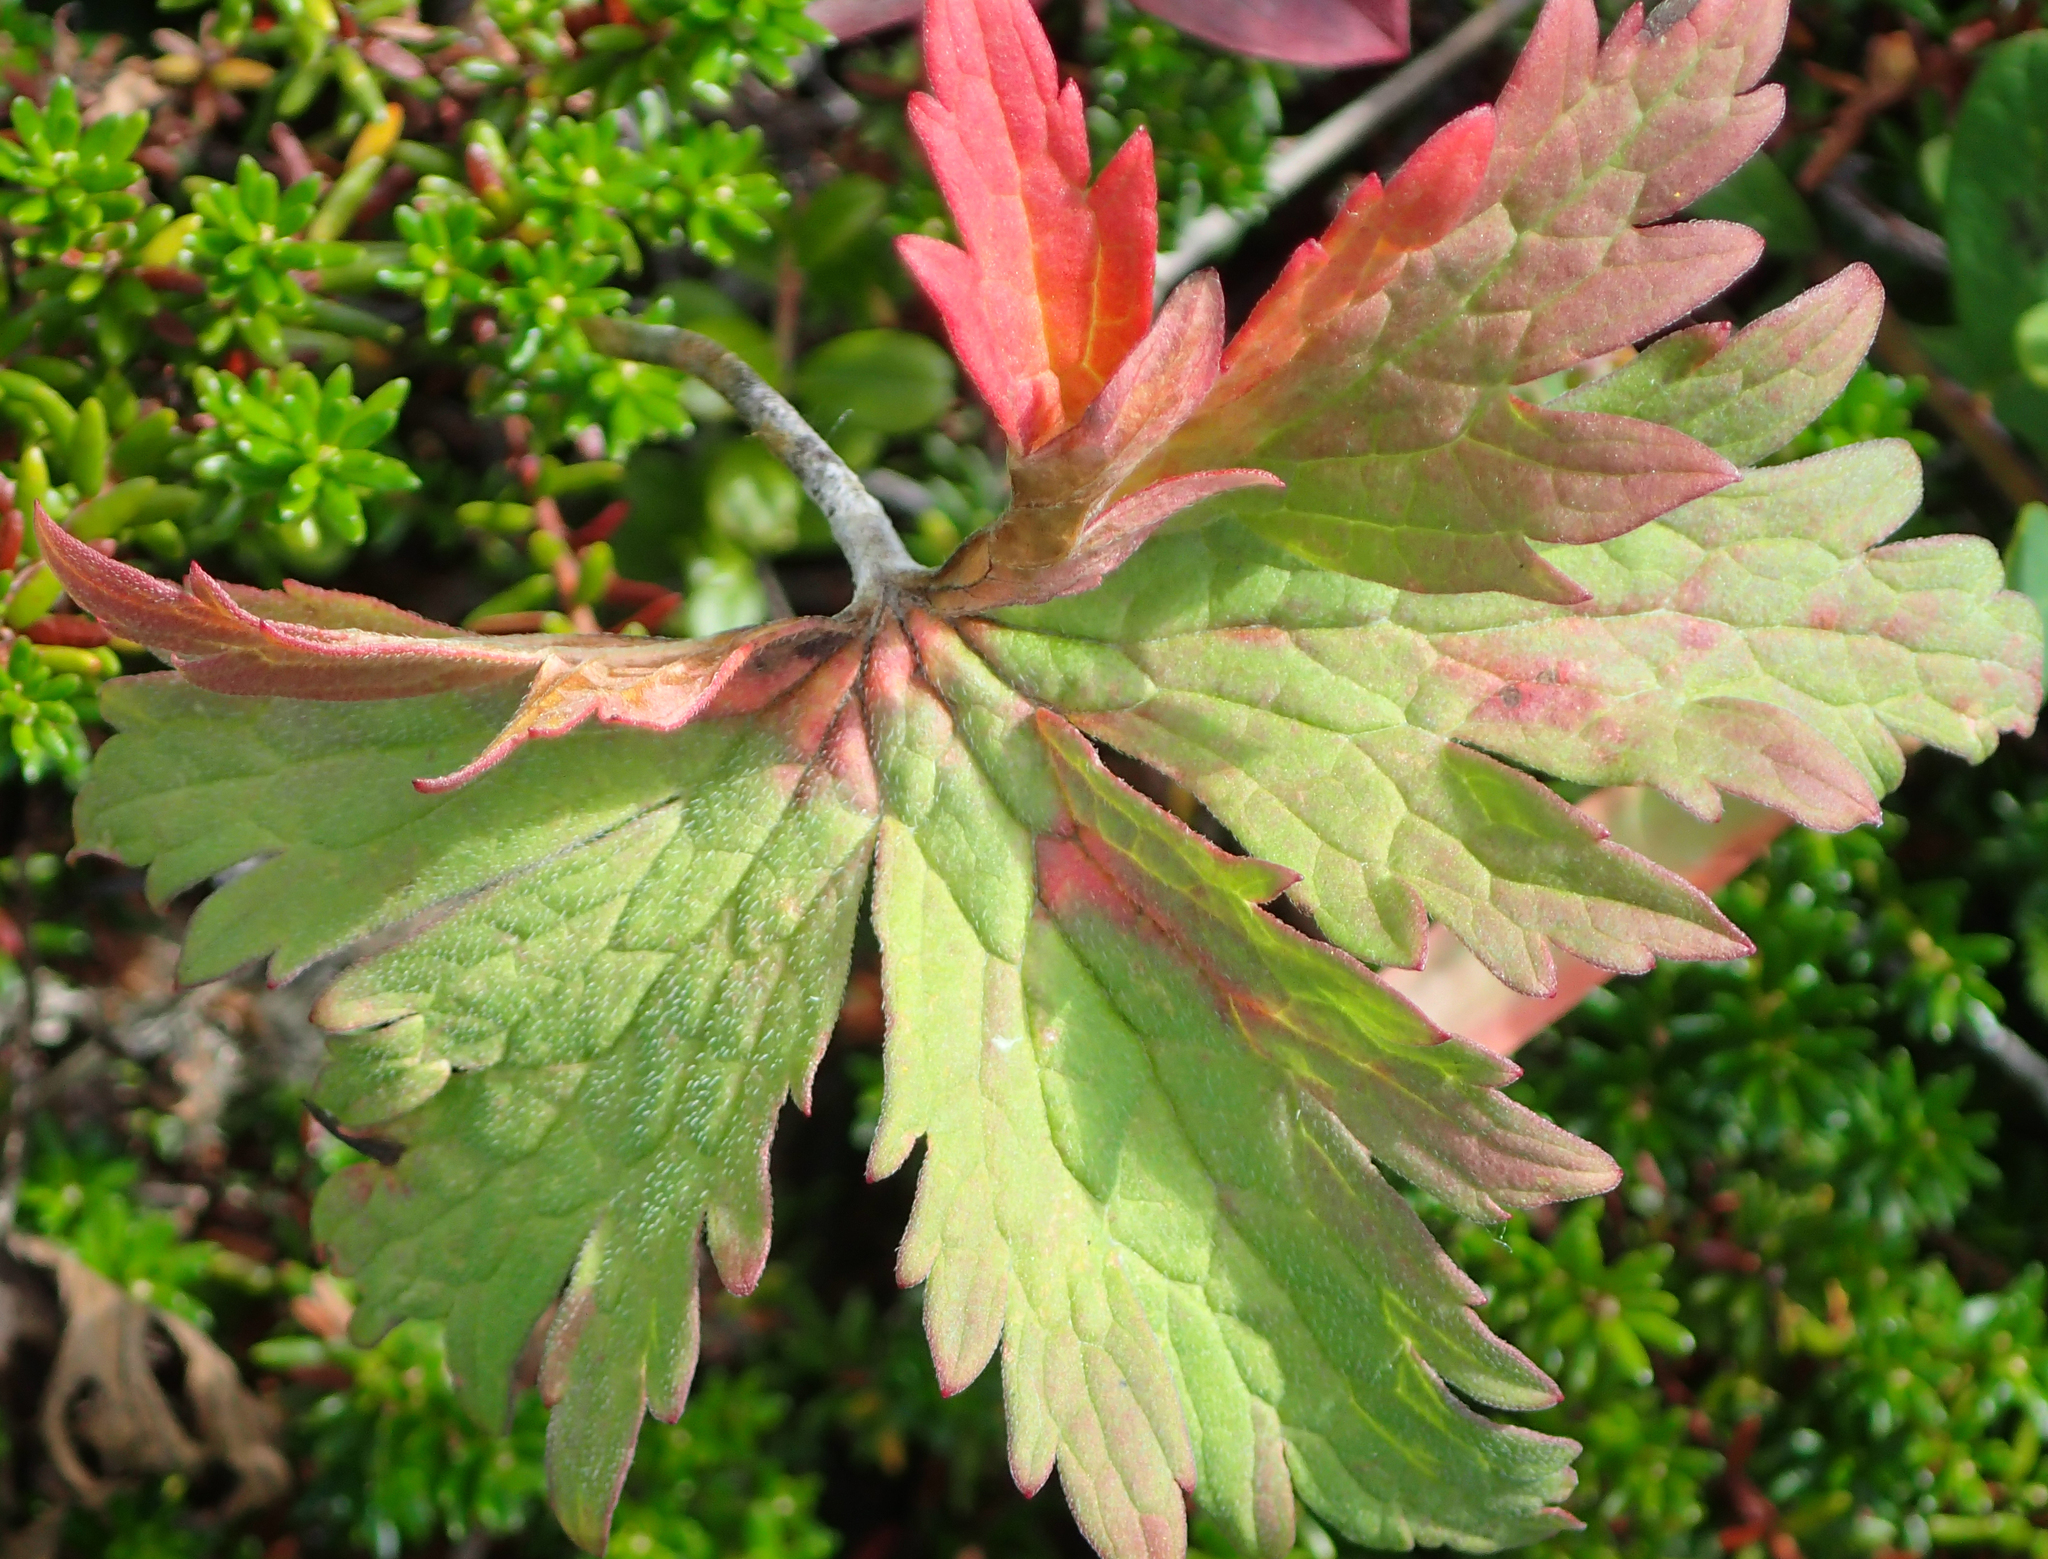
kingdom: Plantae
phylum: Tracheophyta
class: Magnoliopsida
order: Geraniales
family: Geraniaceae
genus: Geranium
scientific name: Geranium erianthum
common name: Northern crane's-bill
